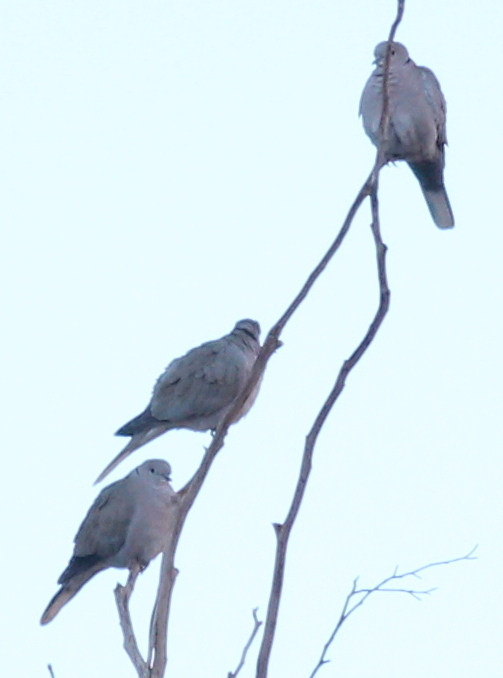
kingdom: Animalia
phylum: Chordata
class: Aves
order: Columbiformes
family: Columbidae
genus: Streptopelia
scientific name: Streptopelia decaocto
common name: Eurasian collared dove
